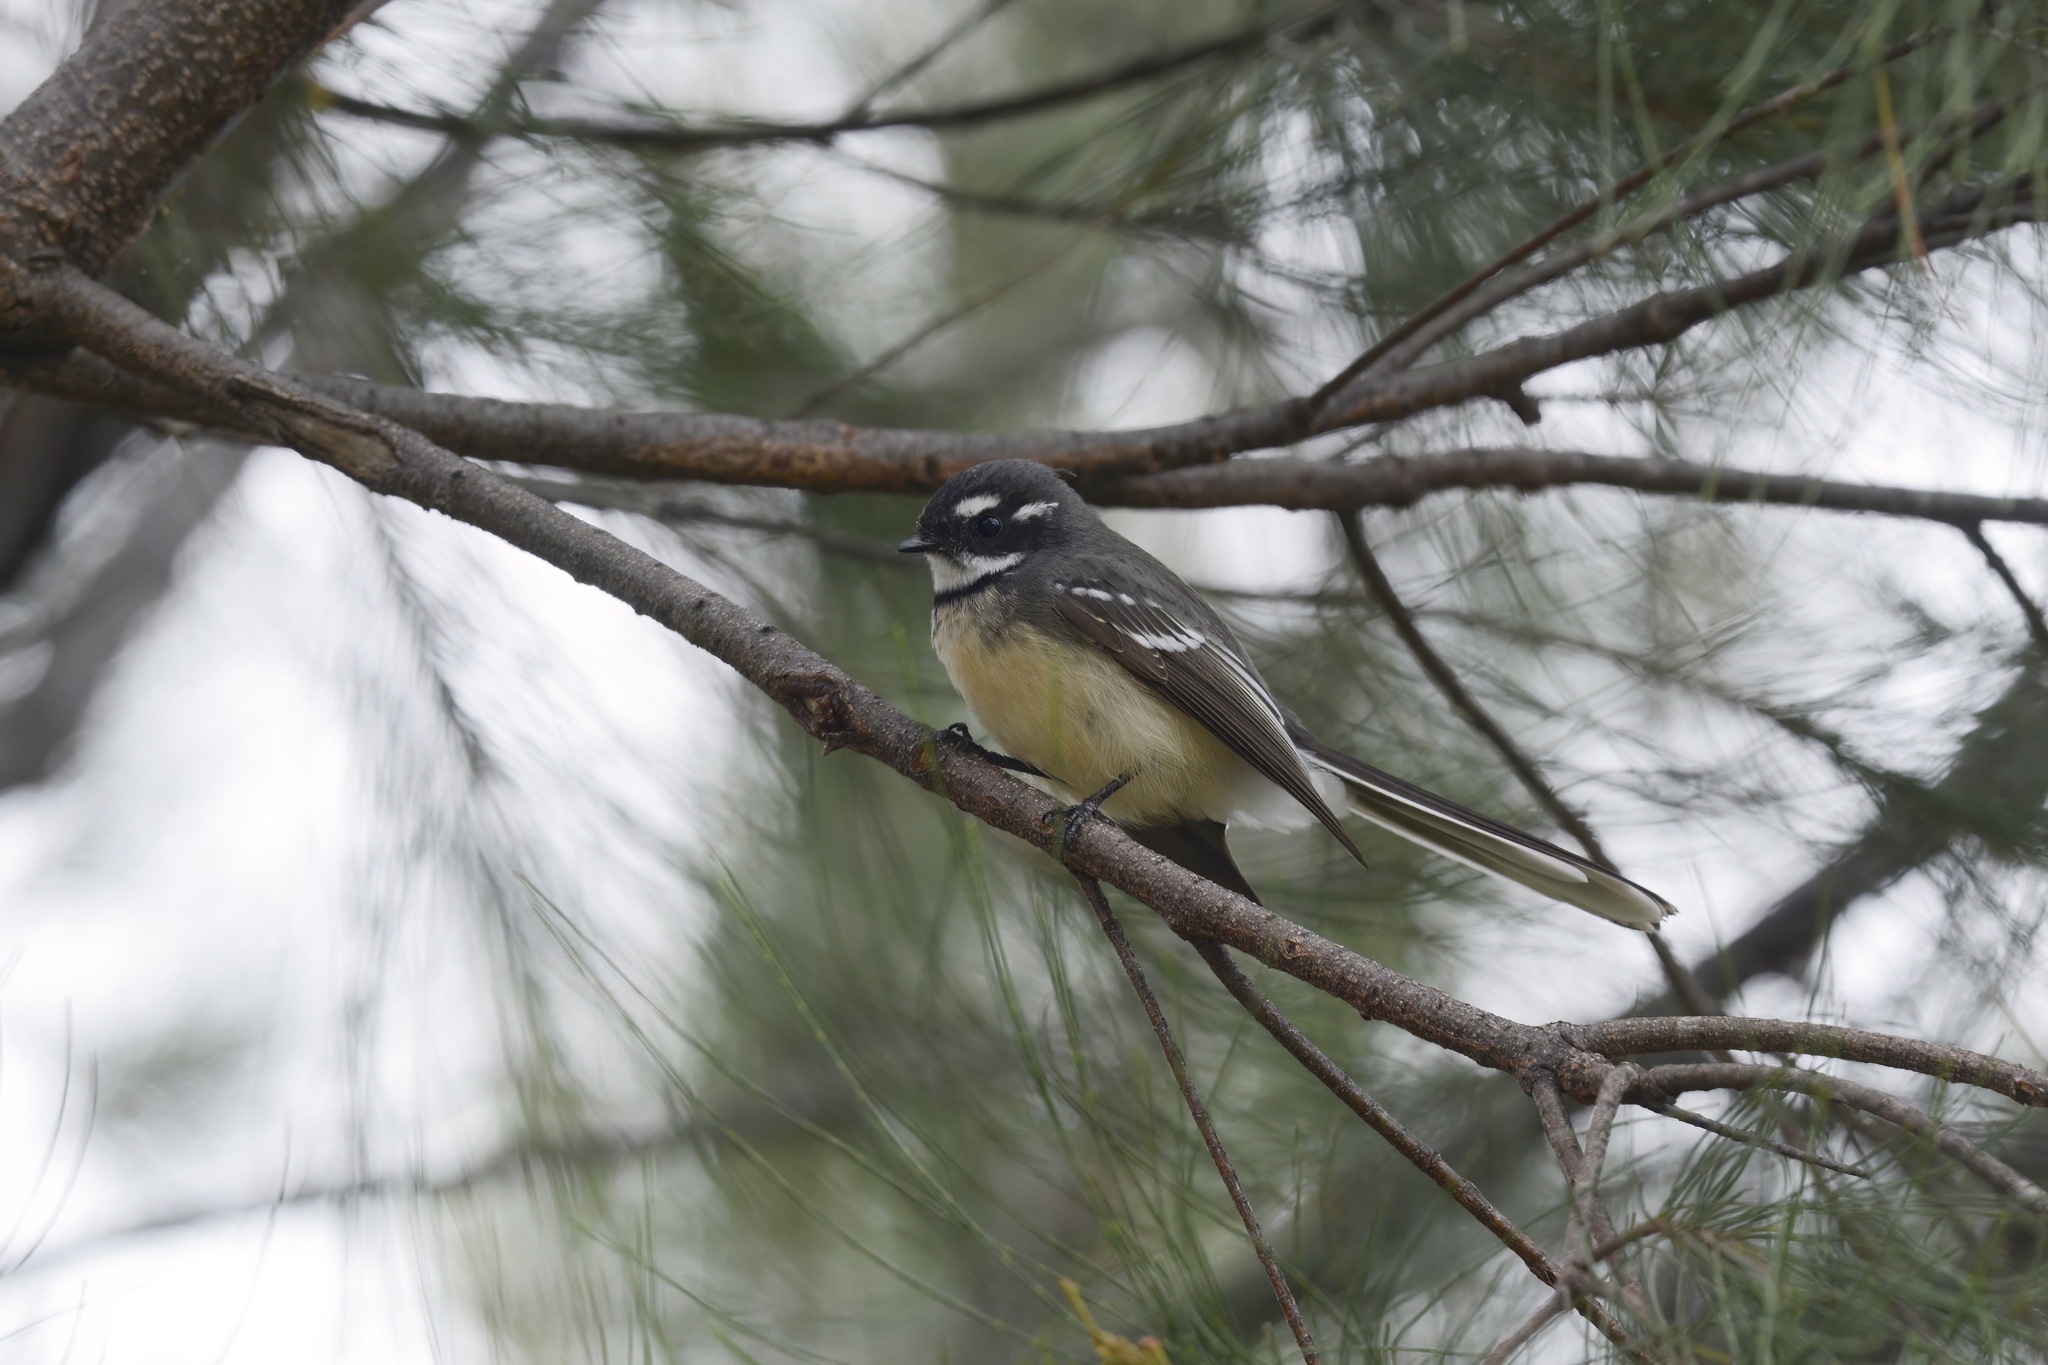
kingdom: Animalia
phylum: Chordata
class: Aves
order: Passeriformes
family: Rhipiduridae
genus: Rhipidura
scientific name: Rhipidura albiscapa
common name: Grey fantail
